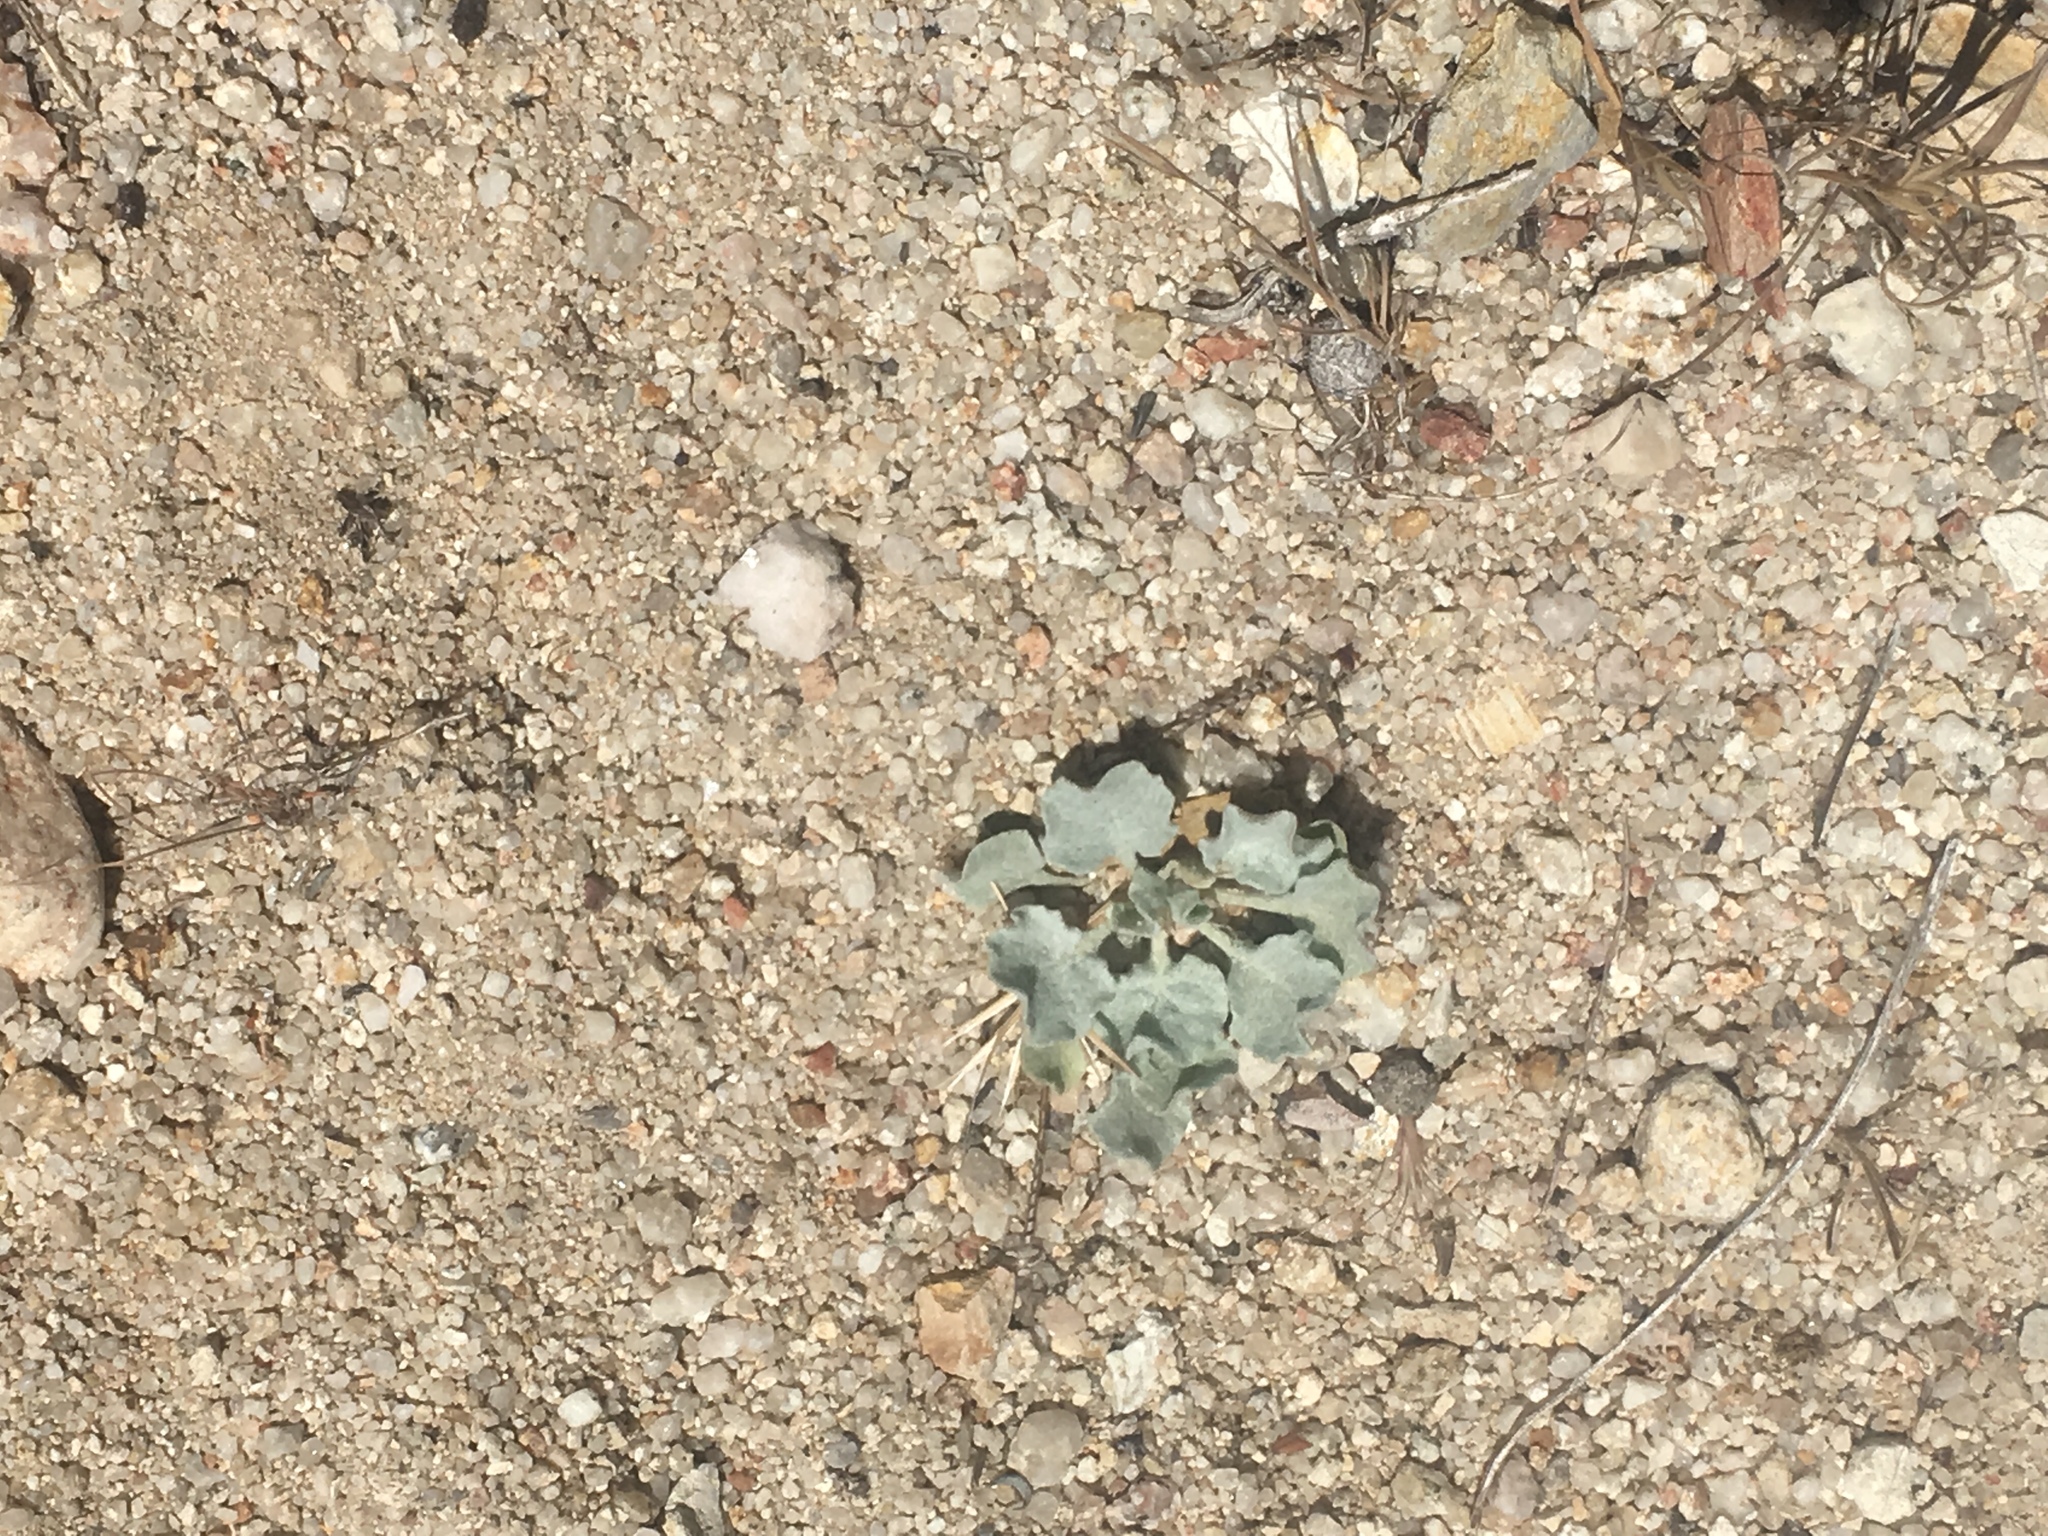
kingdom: Plantae
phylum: Tracheophyta
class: Magnoliopsida
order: Caryophyllales
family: Polygonaceae
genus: Eriogonum
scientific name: Eriogonum elegans
